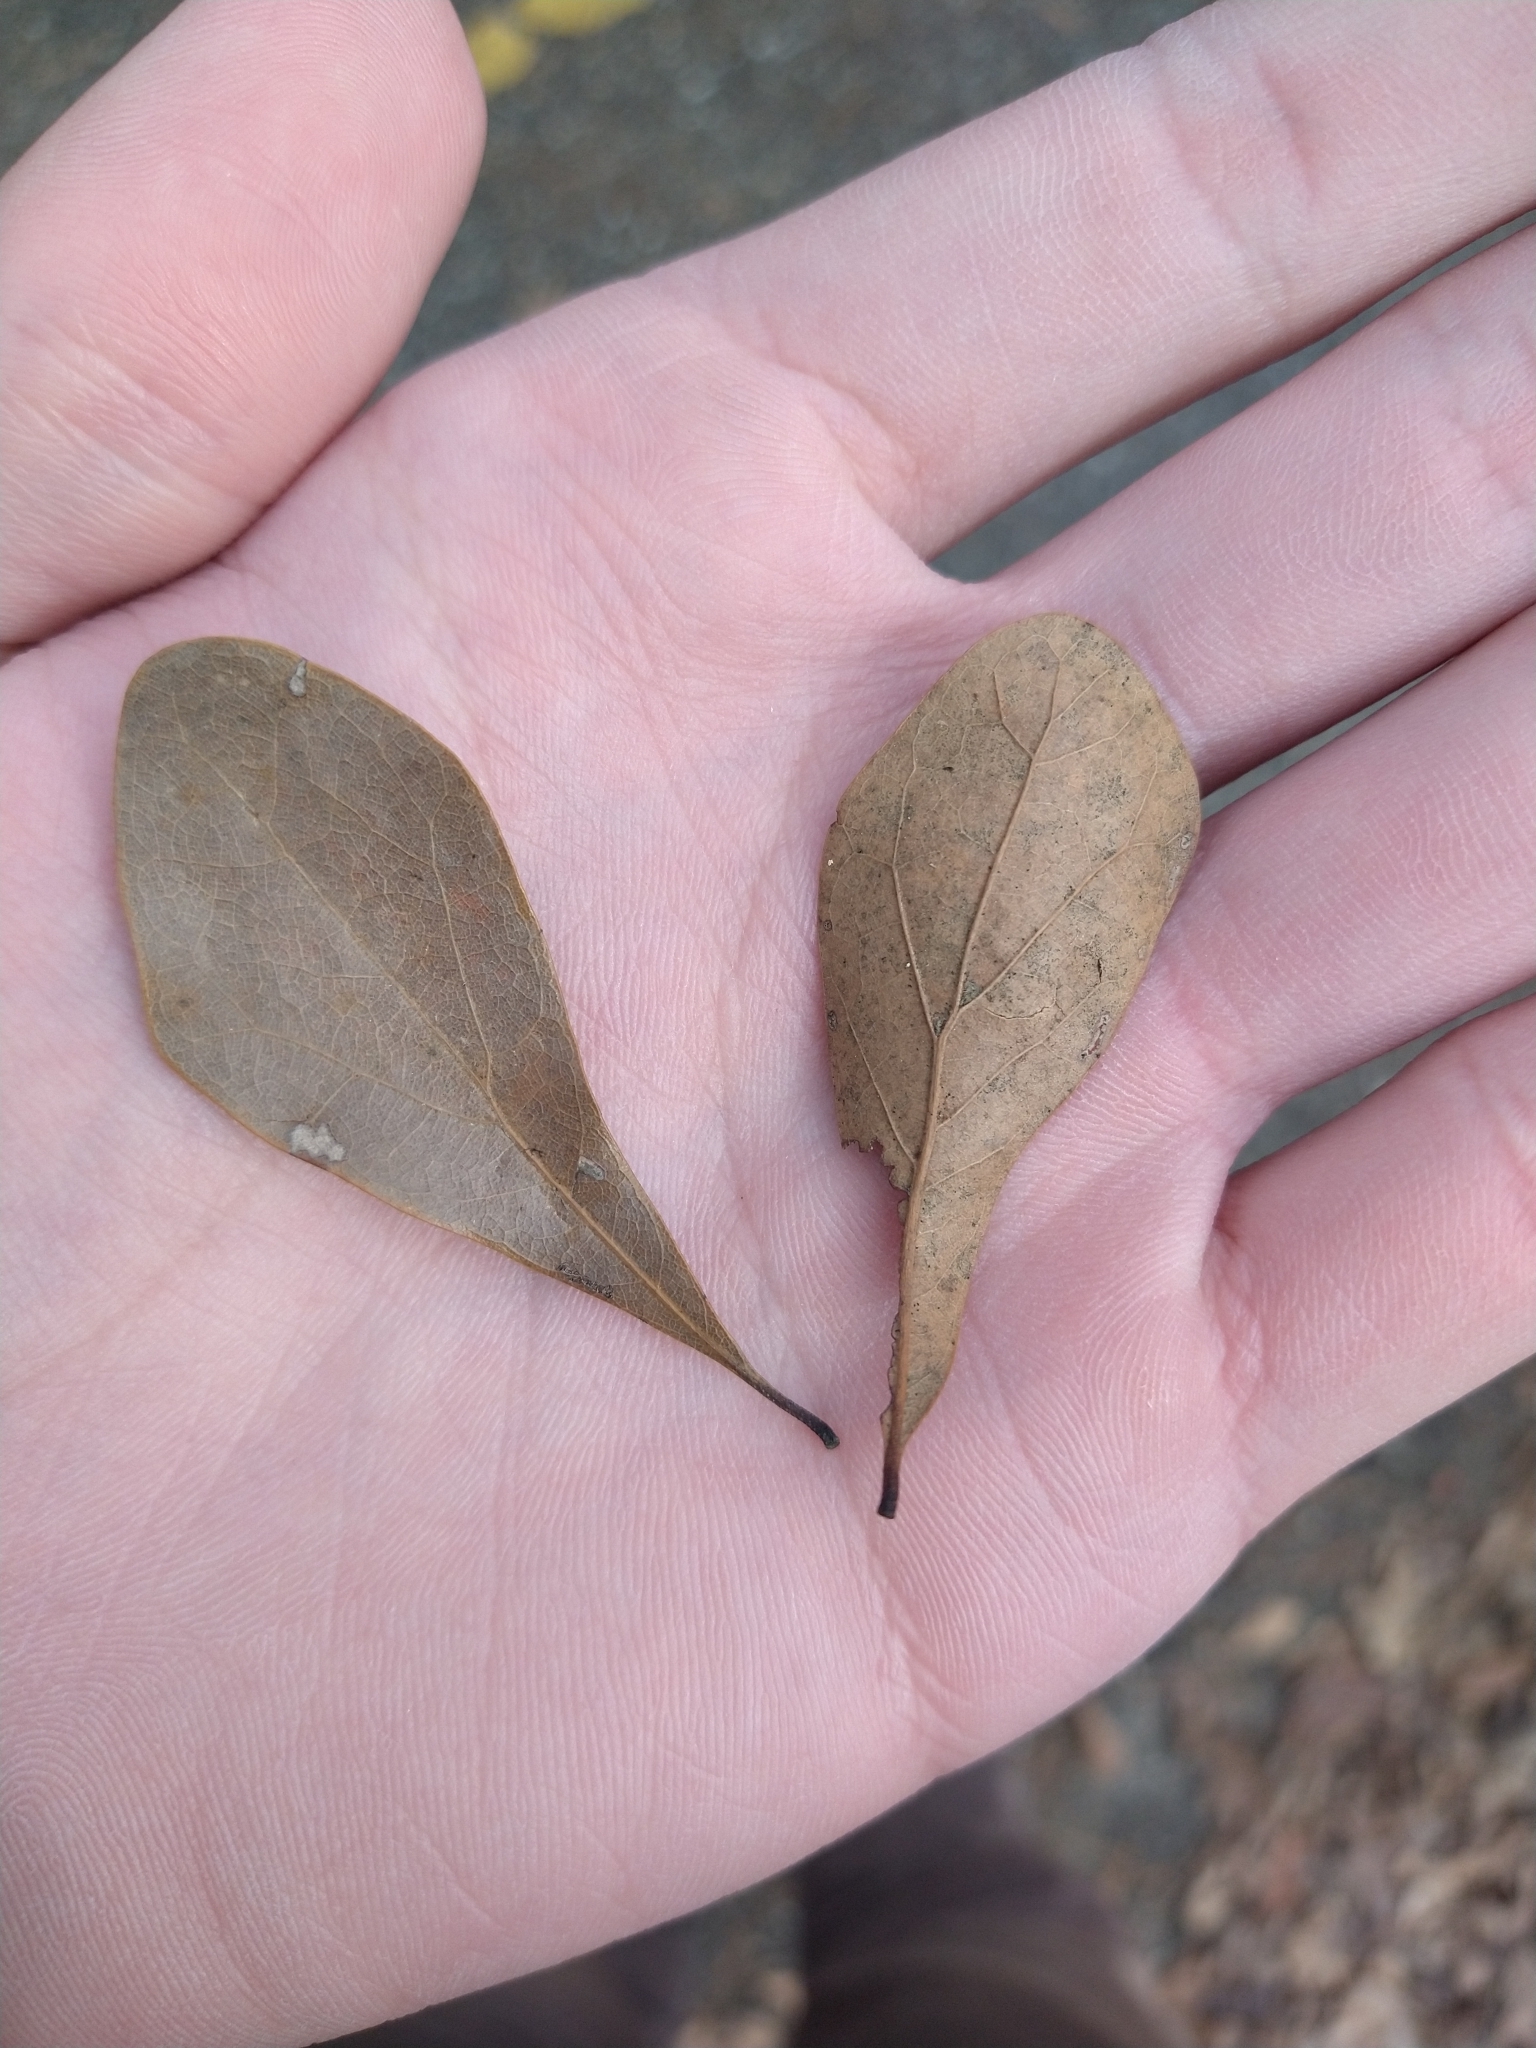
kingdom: Plantae
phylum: Tracheophyta
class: Magnoliopsida
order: Fagales
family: Fagaceae
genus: Quercus
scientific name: Quercus nigra
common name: Water oak
